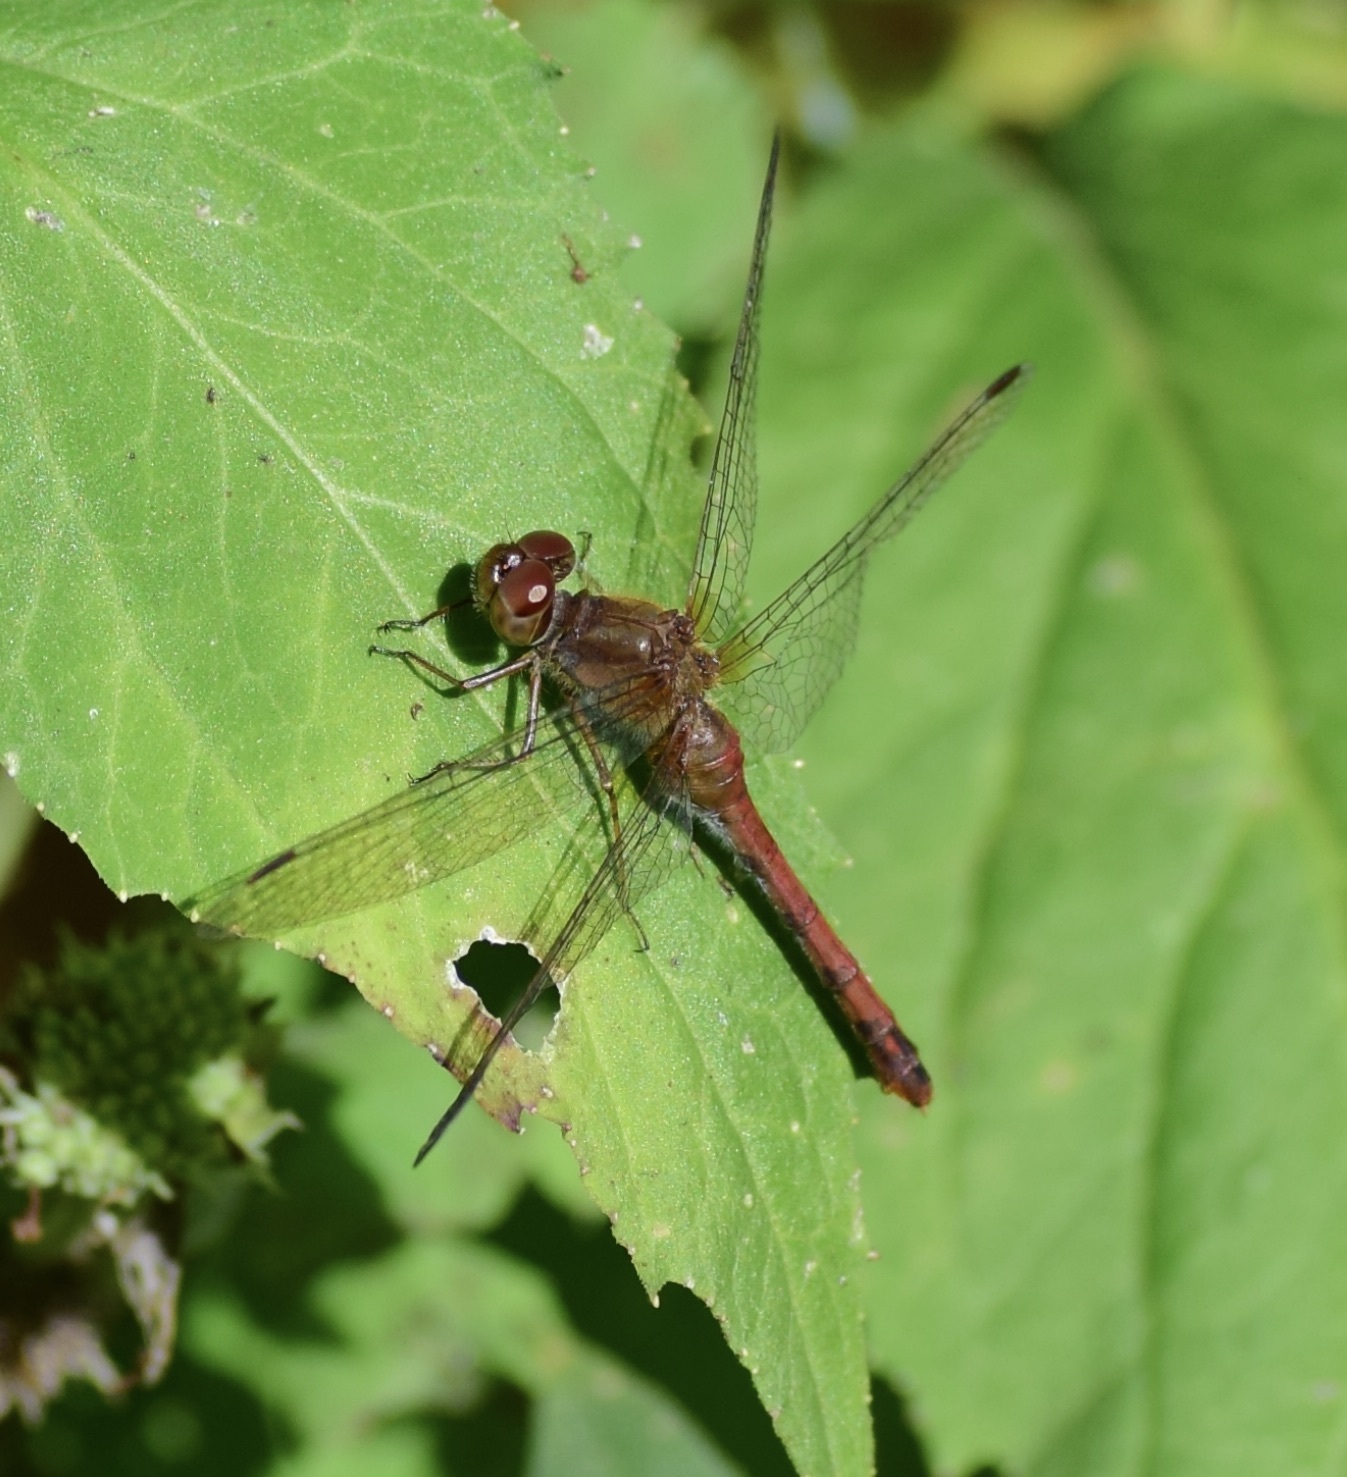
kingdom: Animalia
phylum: Arthropoda
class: Insecta
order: Odonata
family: Libellulidae
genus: Sympetrum
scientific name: Sympetrum vicinum
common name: Autumn meadowhawk
